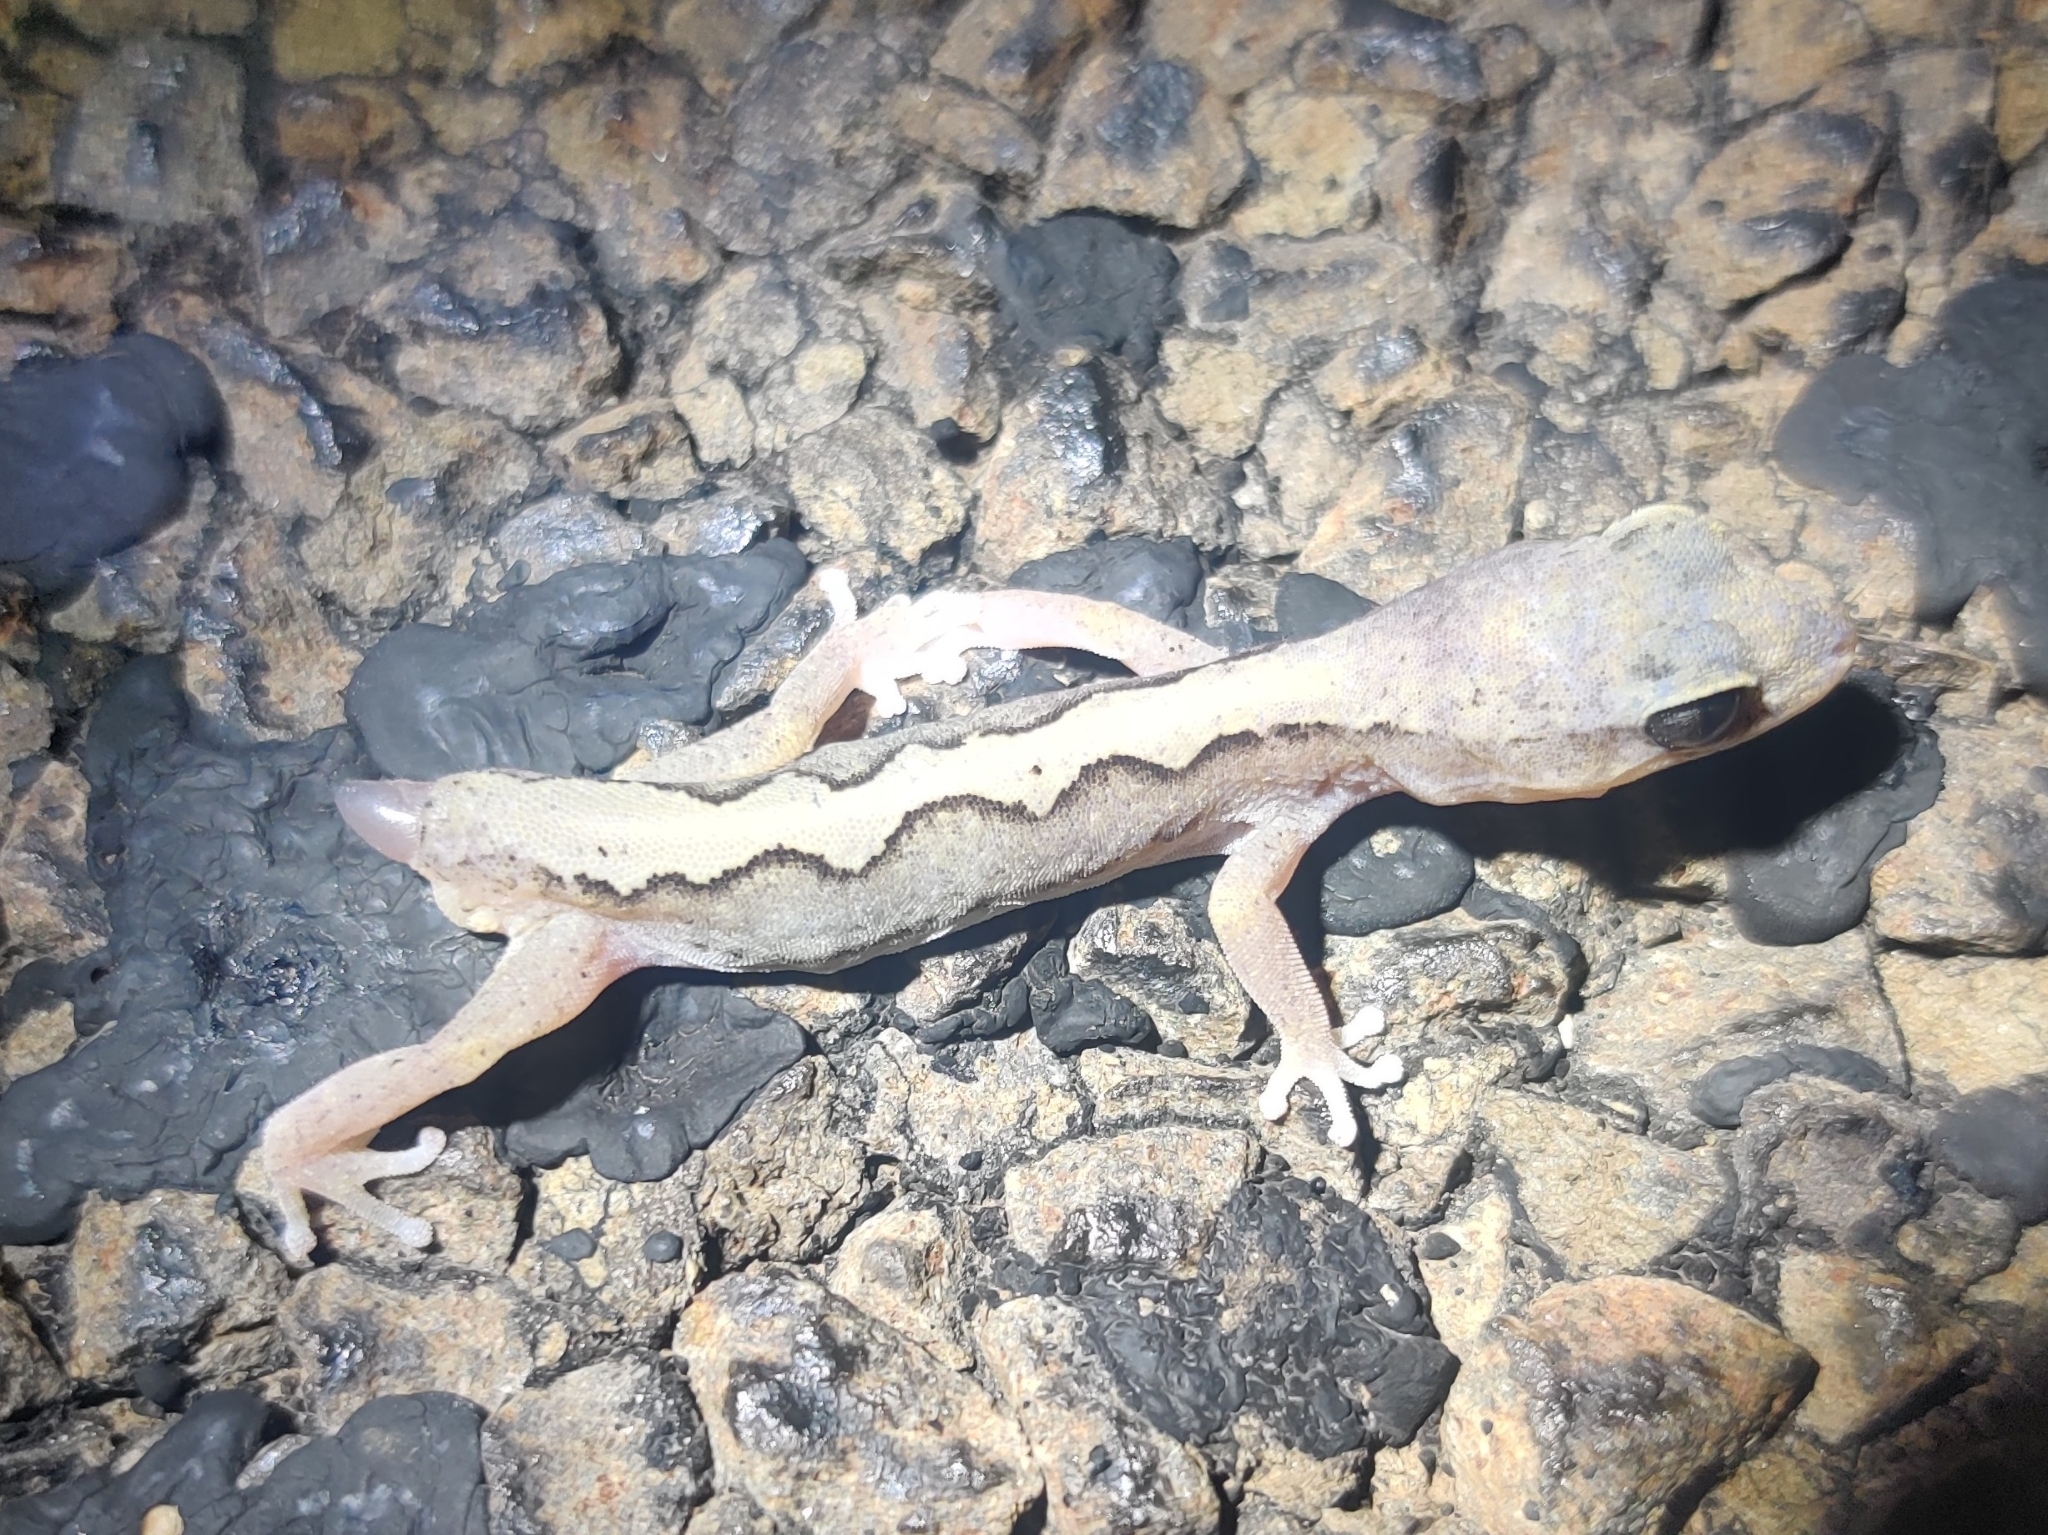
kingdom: Animalia
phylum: Chordata
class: Squamata
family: Diplodactylidae
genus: Diplodactylus
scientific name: Diplodactylus vittatus
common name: Eastern stone gecko
